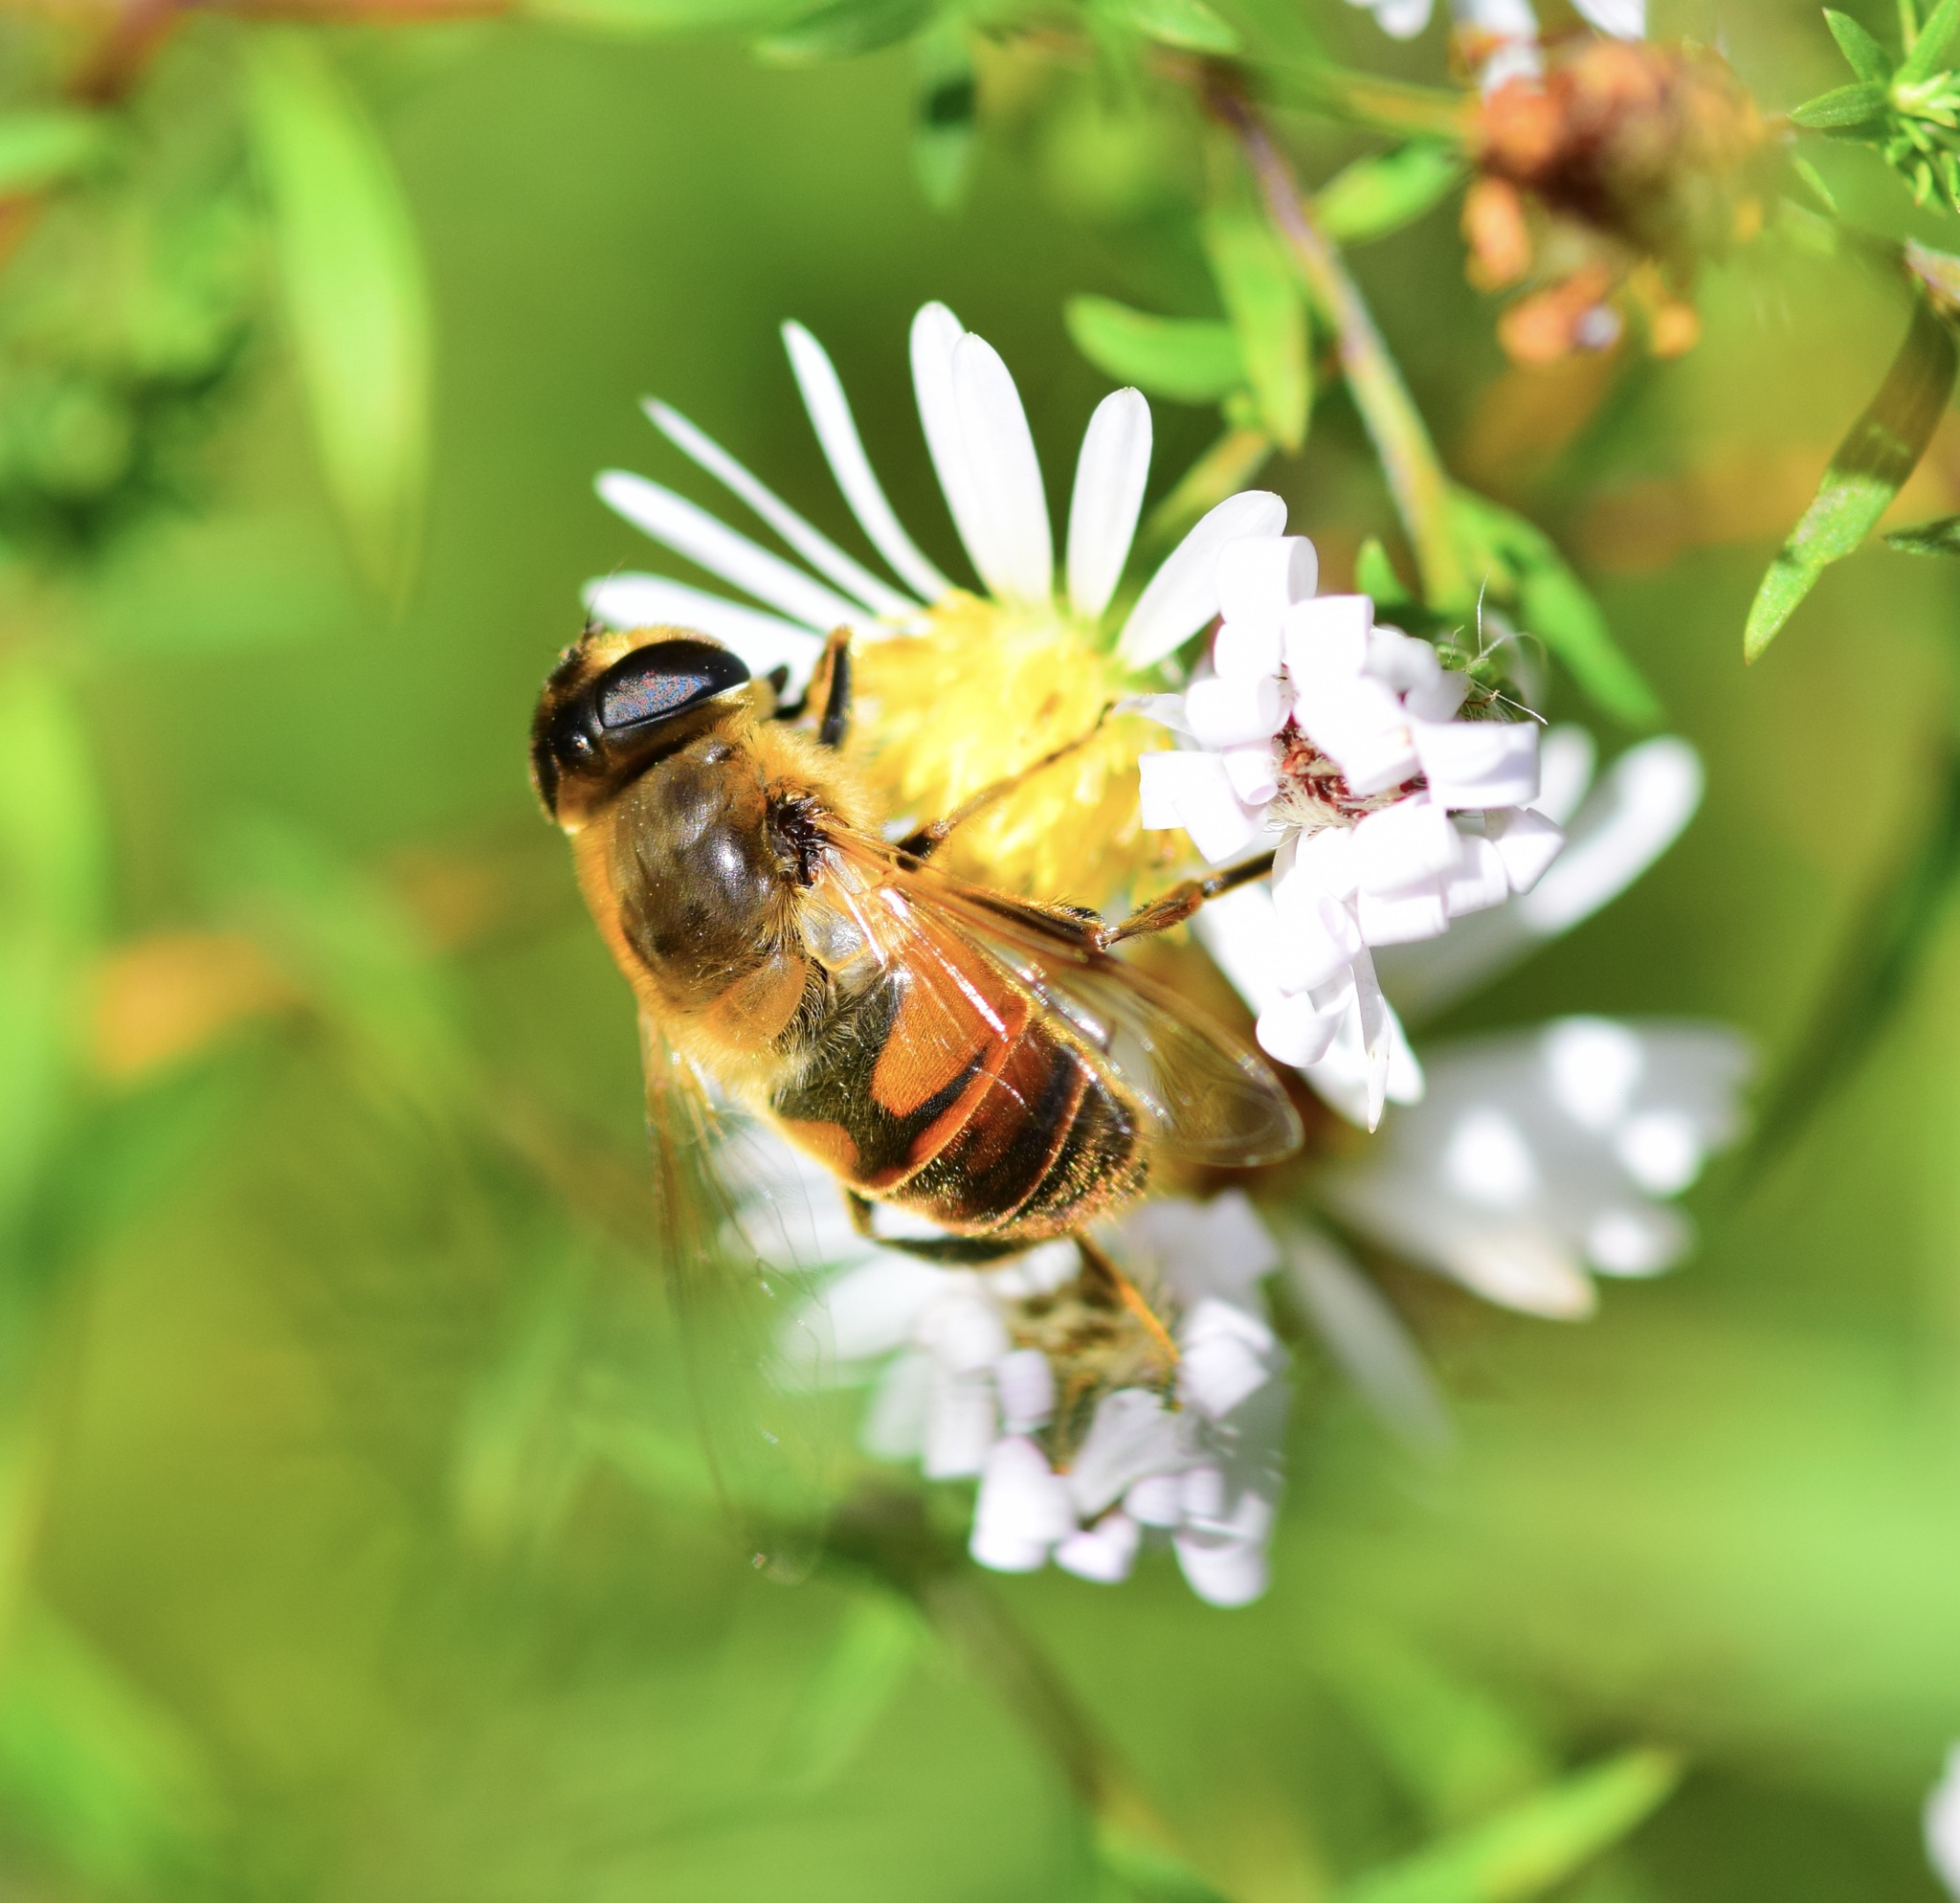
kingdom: Animalia
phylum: Arthropoda
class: Insecta
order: Diptera
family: Syrphidae
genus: Eristalis
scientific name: Eristalis tenax
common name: Drone fly
